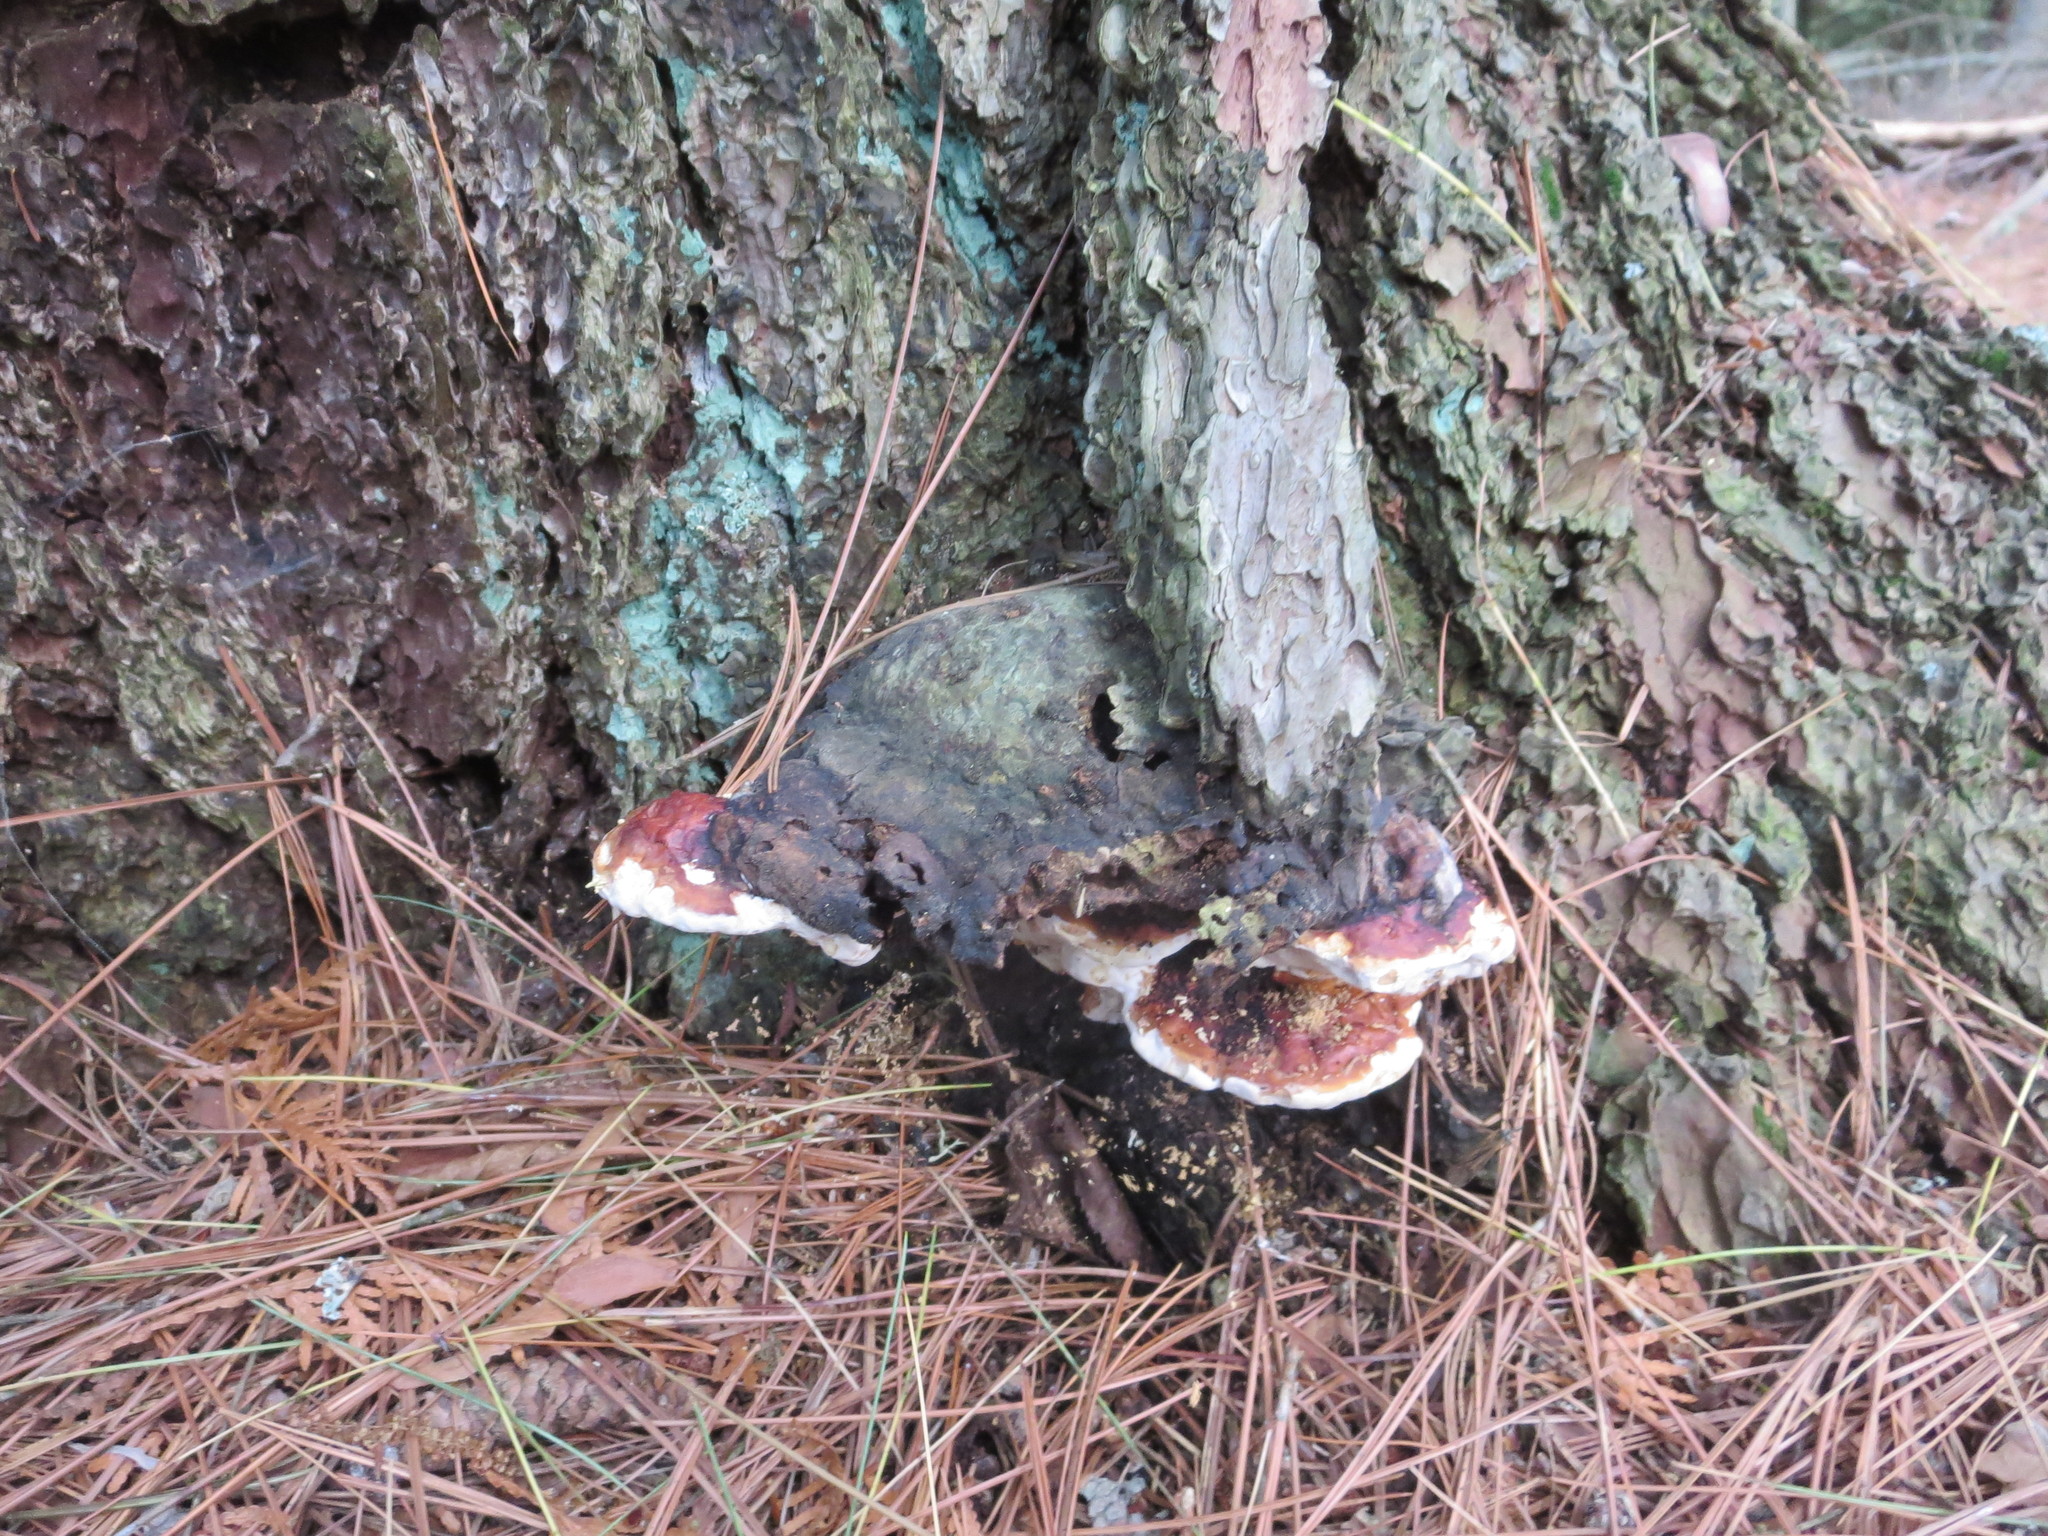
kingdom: Fungi
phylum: Basidiomycota
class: Agaricomycetes
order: Polyporales
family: Fomitopsidaceae
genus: Fomitopsis
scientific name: Fomitopsis mounceae
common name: Northern red belt
